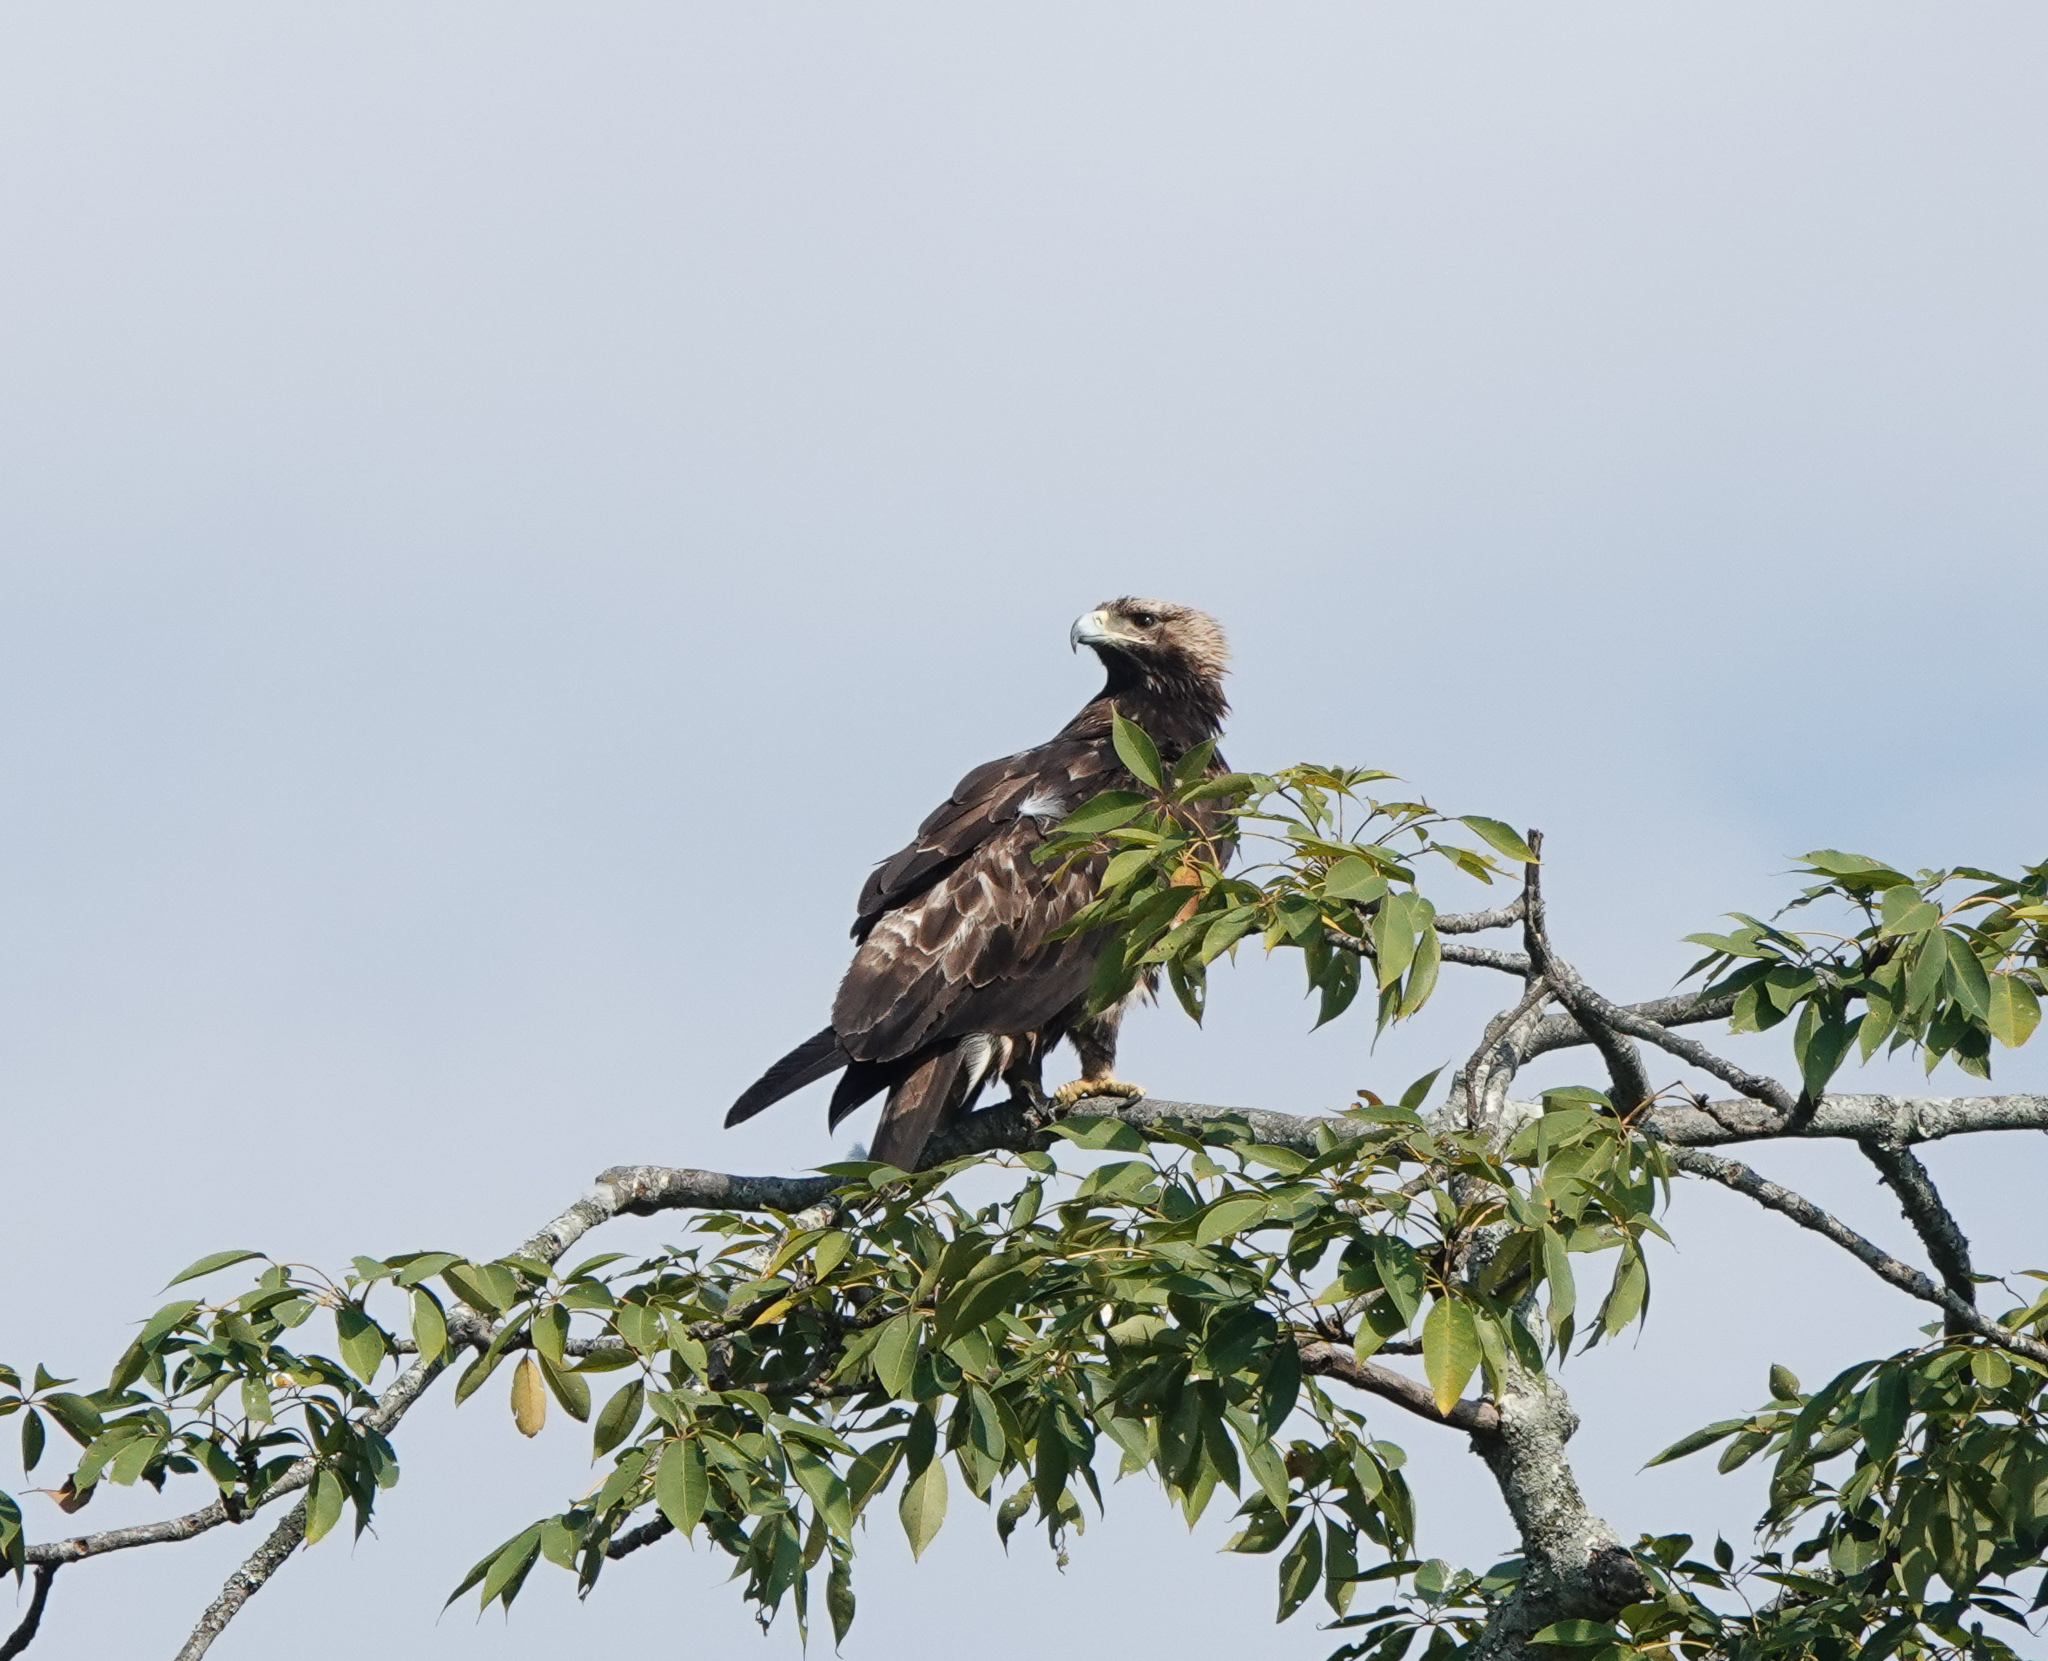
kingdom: Animalia
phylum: Chordata
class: Aves
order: Accipitriformes
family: Accipitridae
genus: Aquila
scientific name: Aquila heliaca
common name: Eastern imperial eagle
